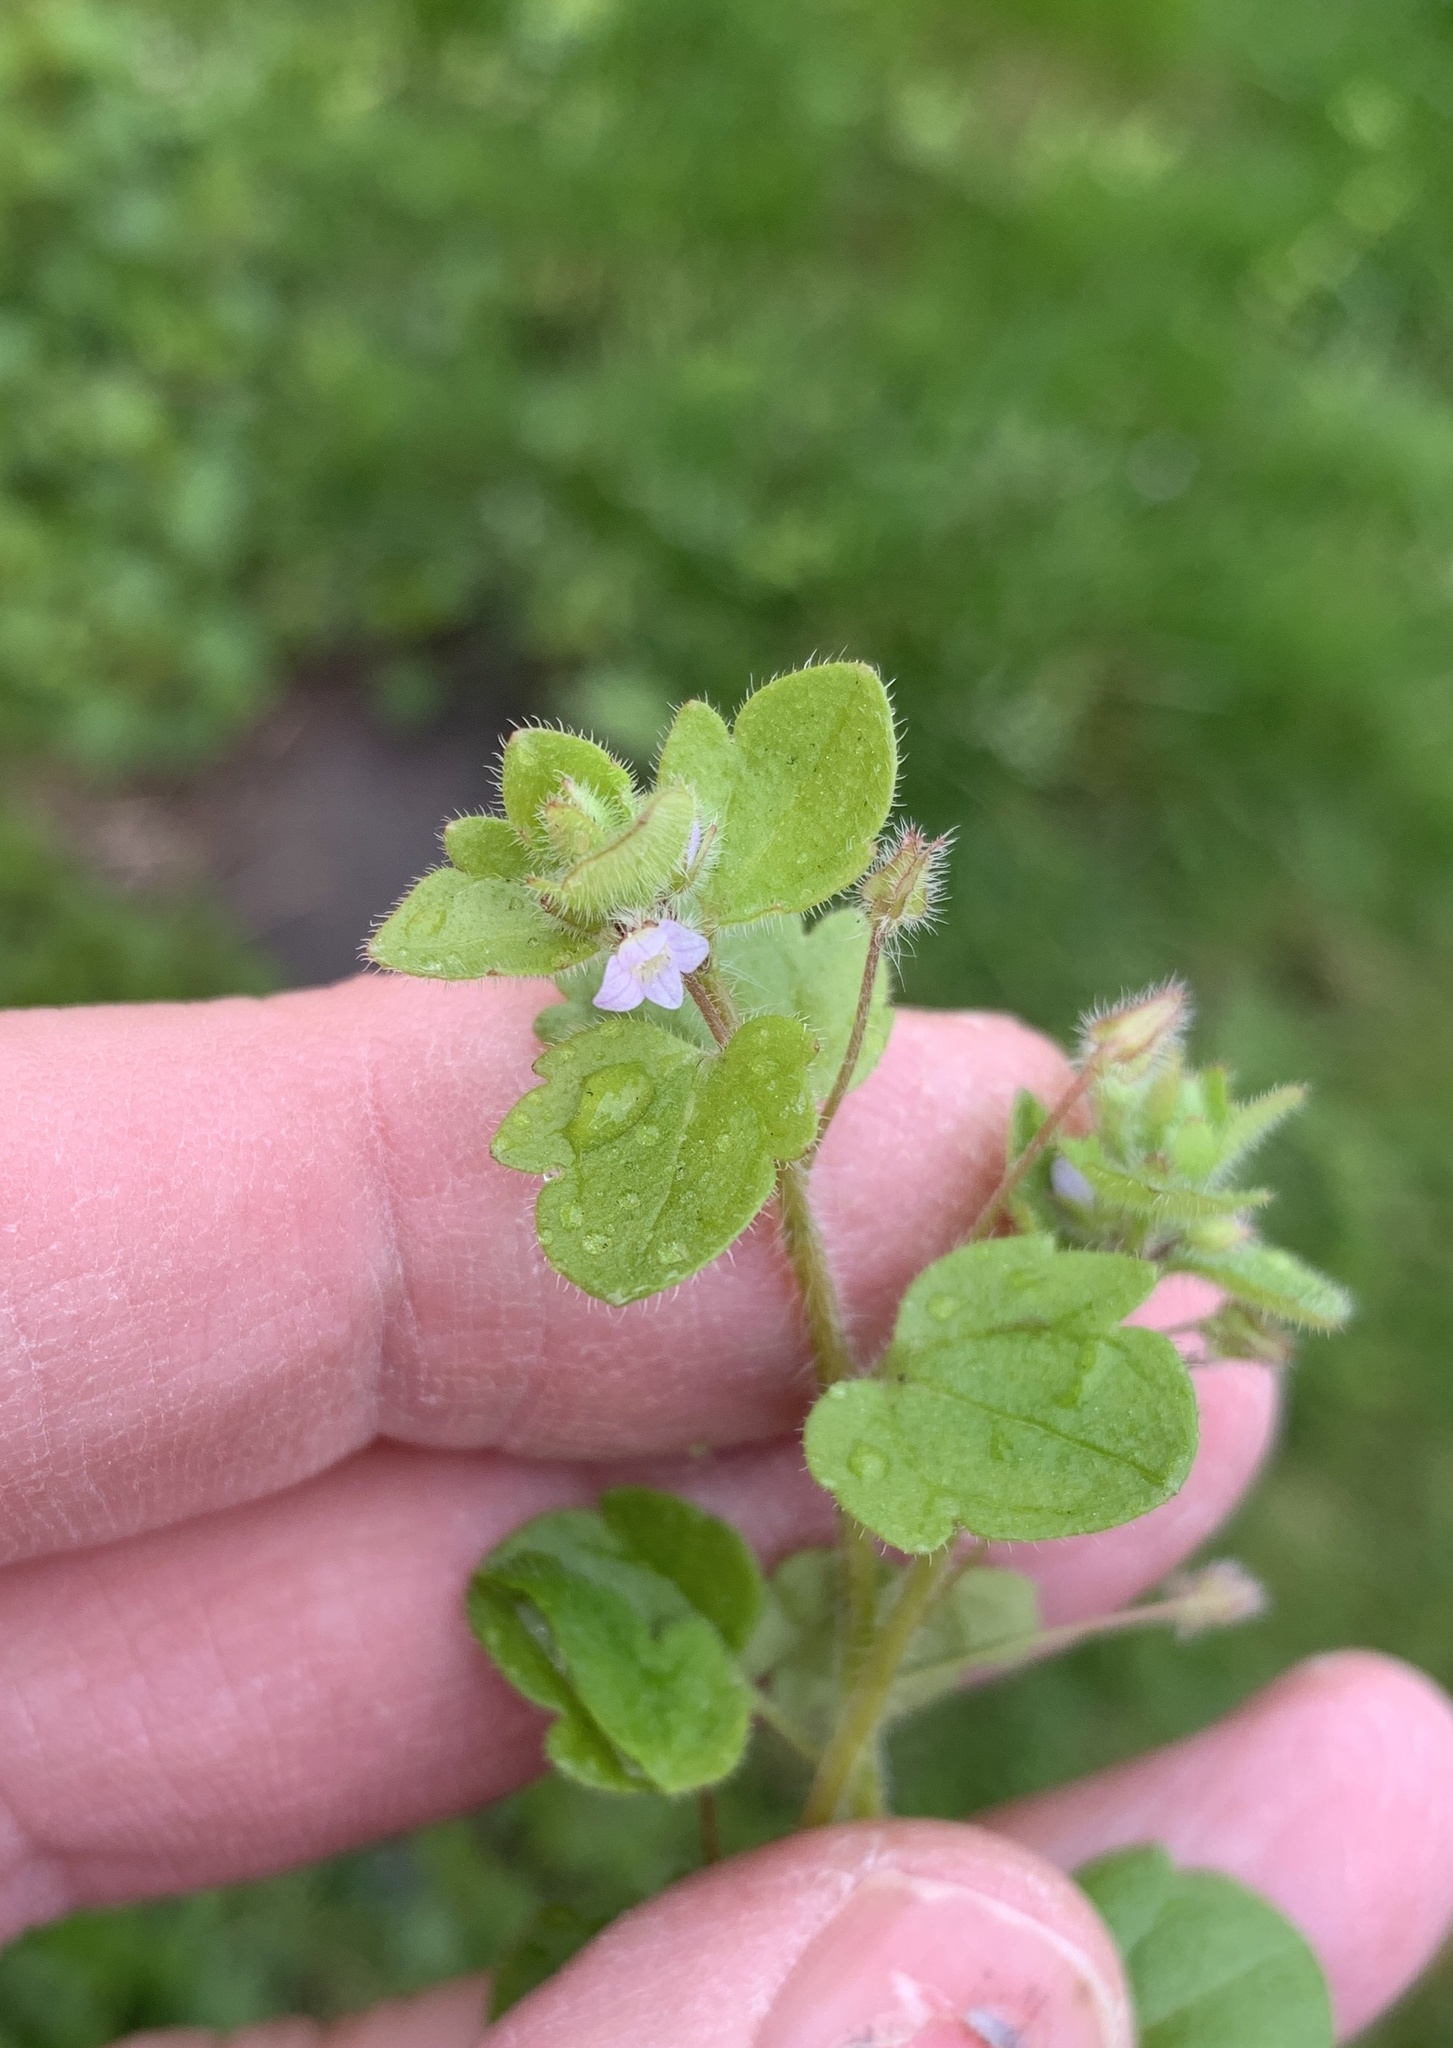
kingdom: Plantae
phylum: Tracheophyta
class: Magnoliopsida
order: Lamiales
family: Plantaginaceae
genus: Veronica
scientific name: Veronica sublobata
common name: False ivy-leaved speedwell
